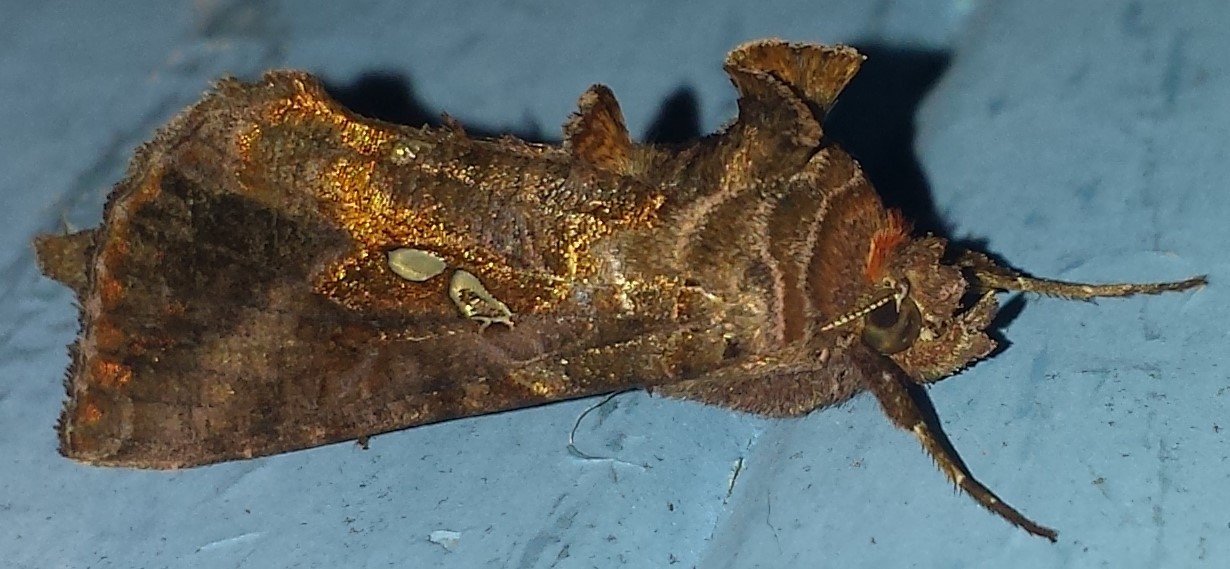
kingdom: Animalia
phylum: Arthropoda
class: Insecta
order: Lepidoptera
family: Noctuidae
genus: Autographa
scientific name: Autographa precationis
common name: Common looper moth
